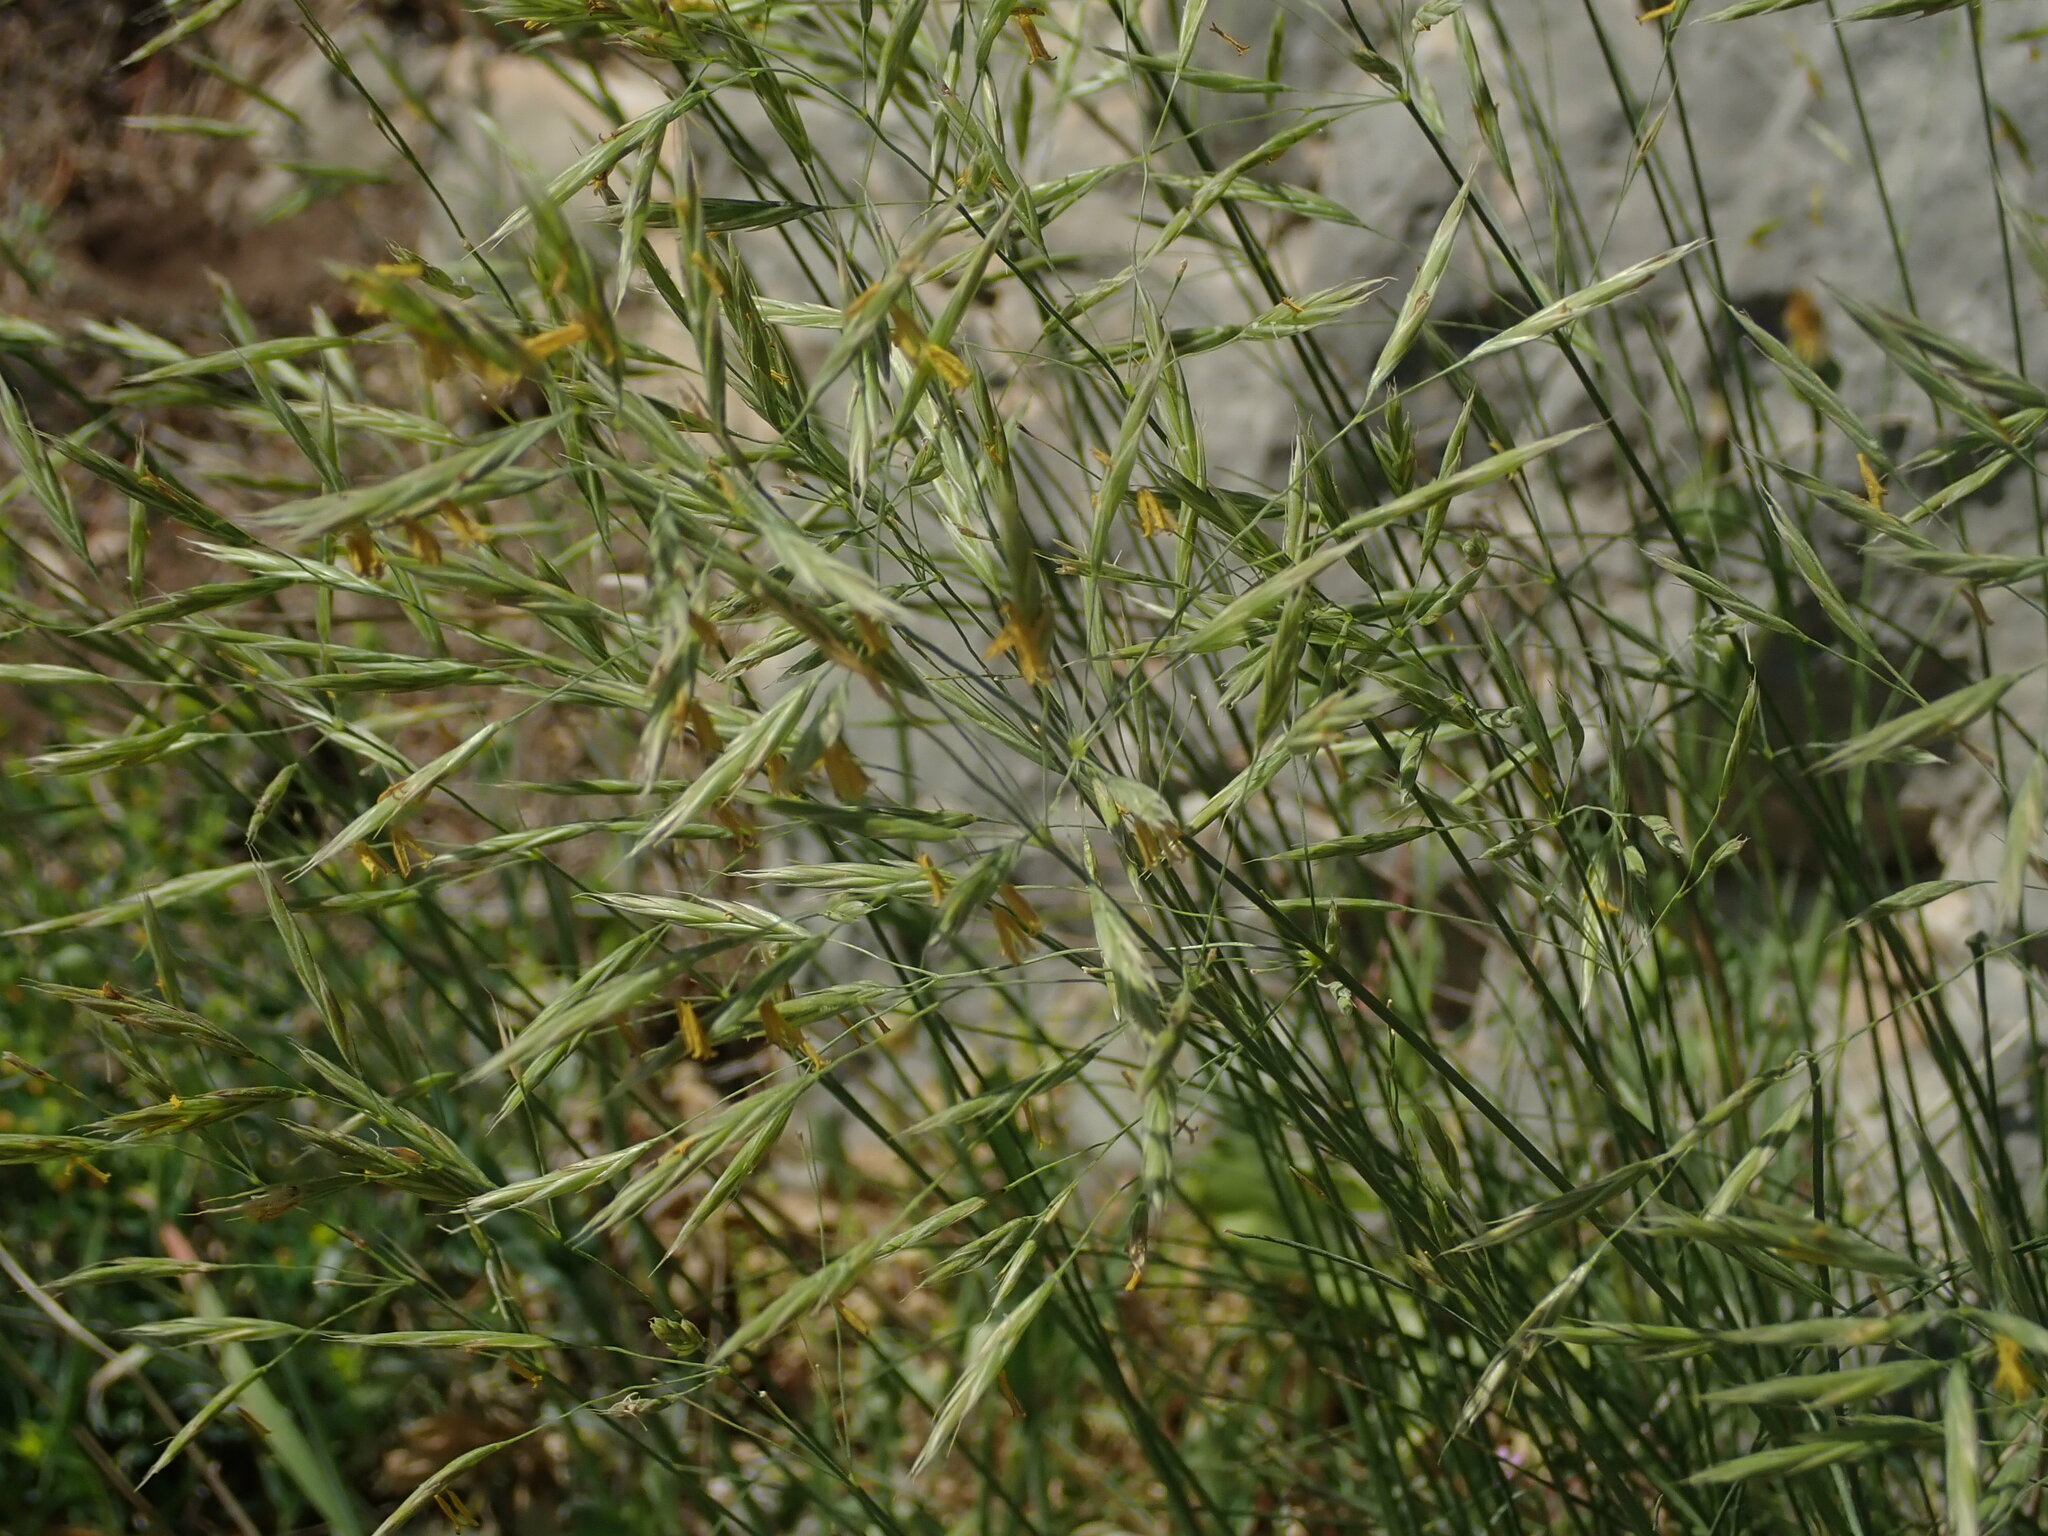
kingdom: Plantae
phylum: Tracheophyta
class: Liliopsida
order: Poales
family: Poaceae
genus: Bromus
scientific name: Bromus erectus
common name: Erect brome
